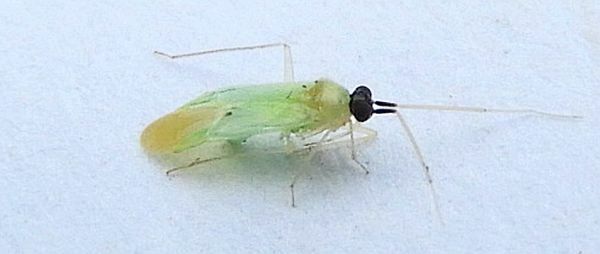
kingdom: Animalia
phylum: Arthropoda
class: Insecta
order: Hemiptera
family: Miridae
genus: Paraproba
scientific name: Paraproba capitata
